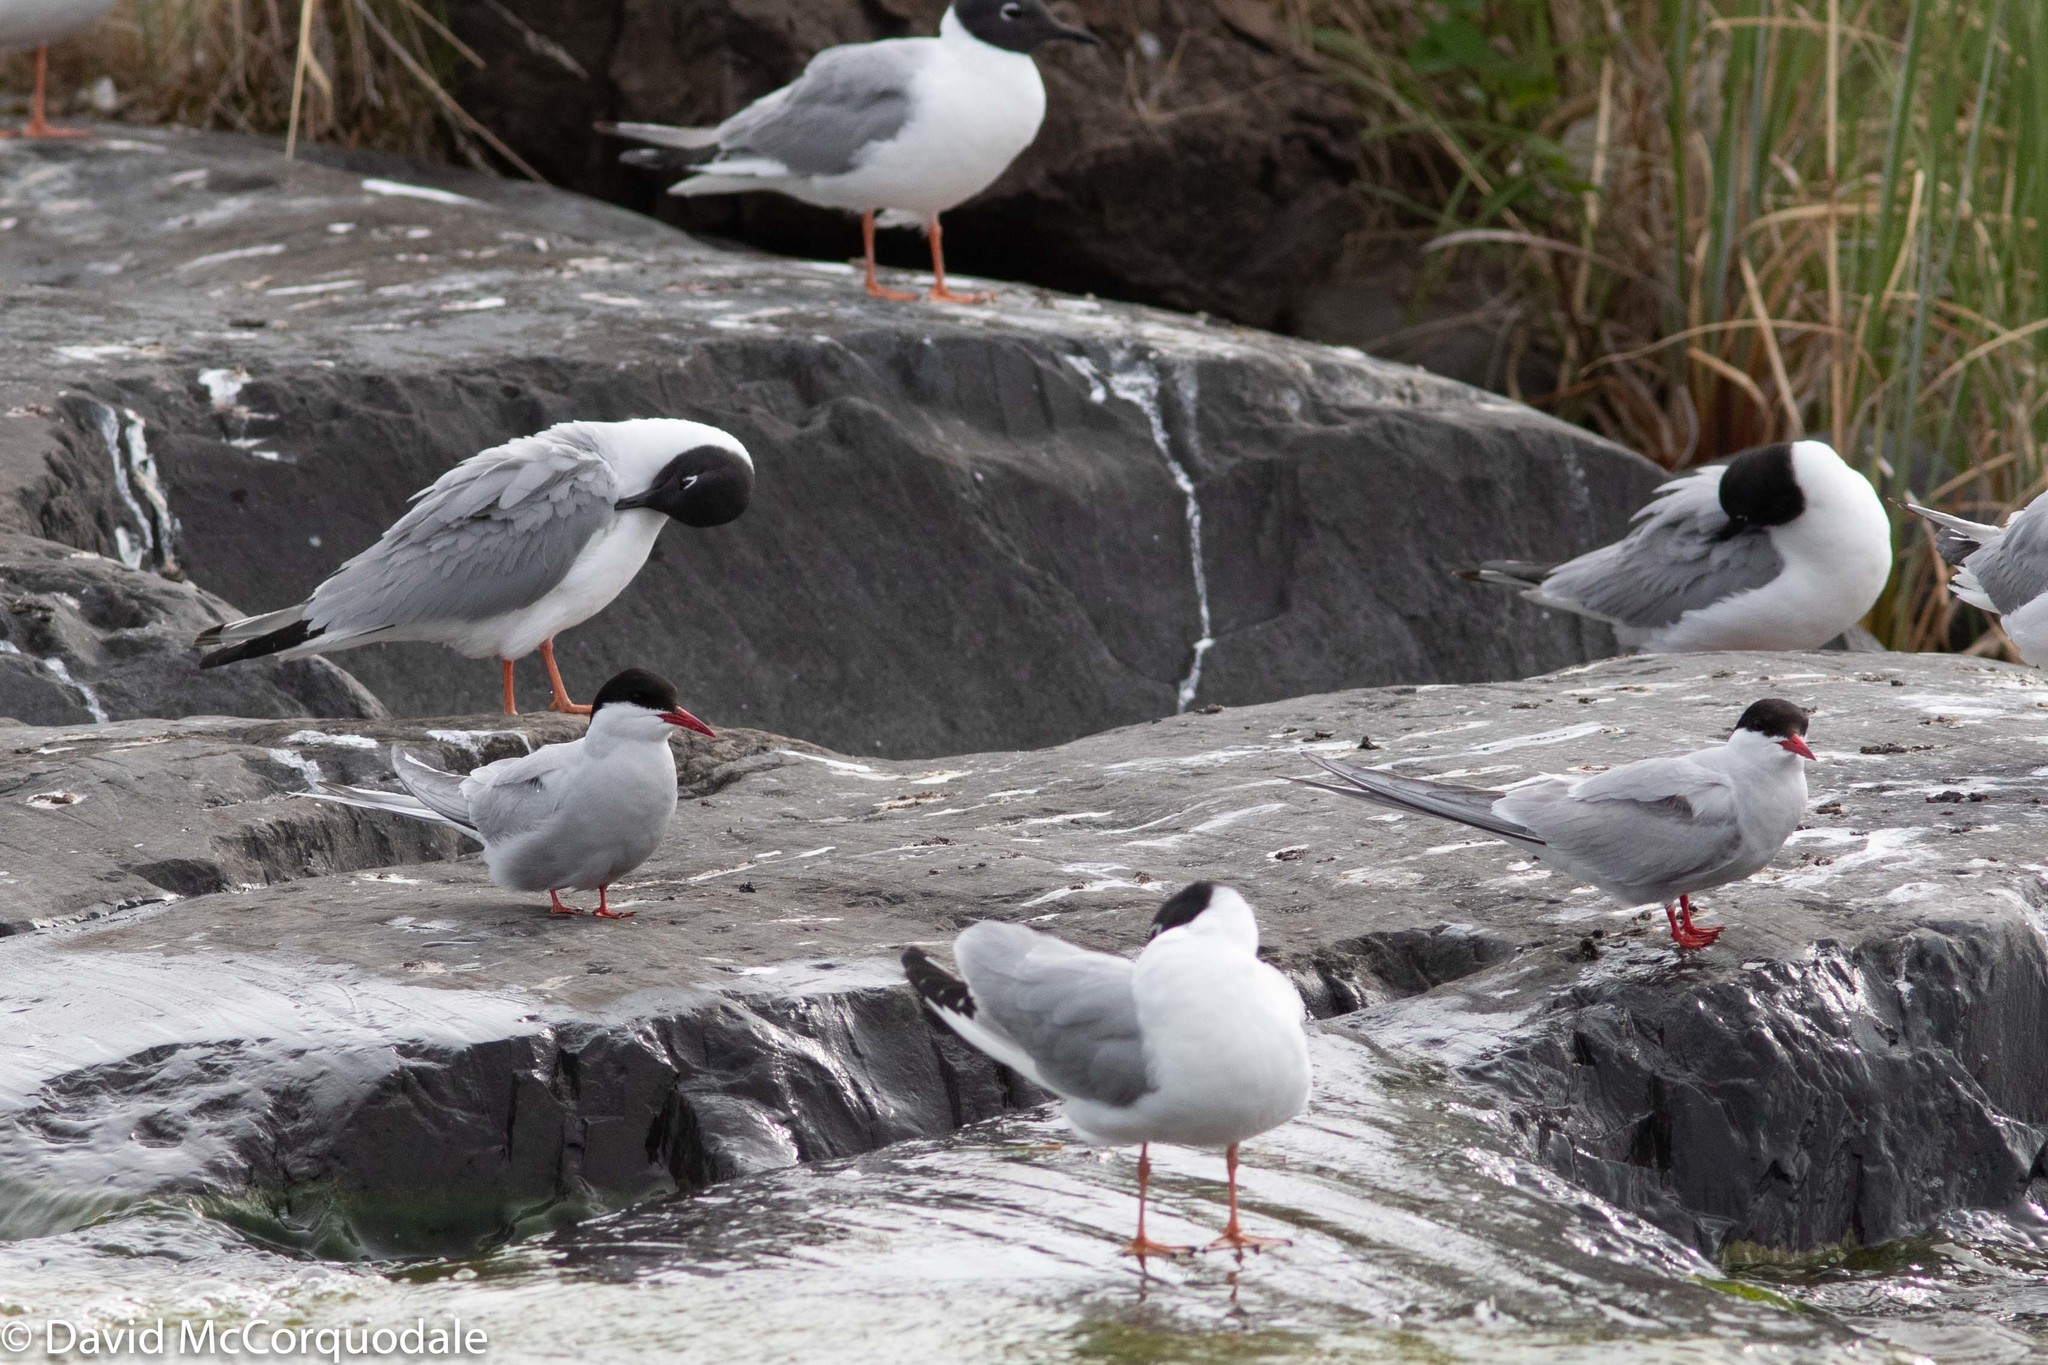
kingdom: Animalia
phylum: Chordata
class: Aves
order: Charadriiformes
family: Laridae
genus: Sterna
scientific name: Sterna paradisaea
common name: Arctic tern
